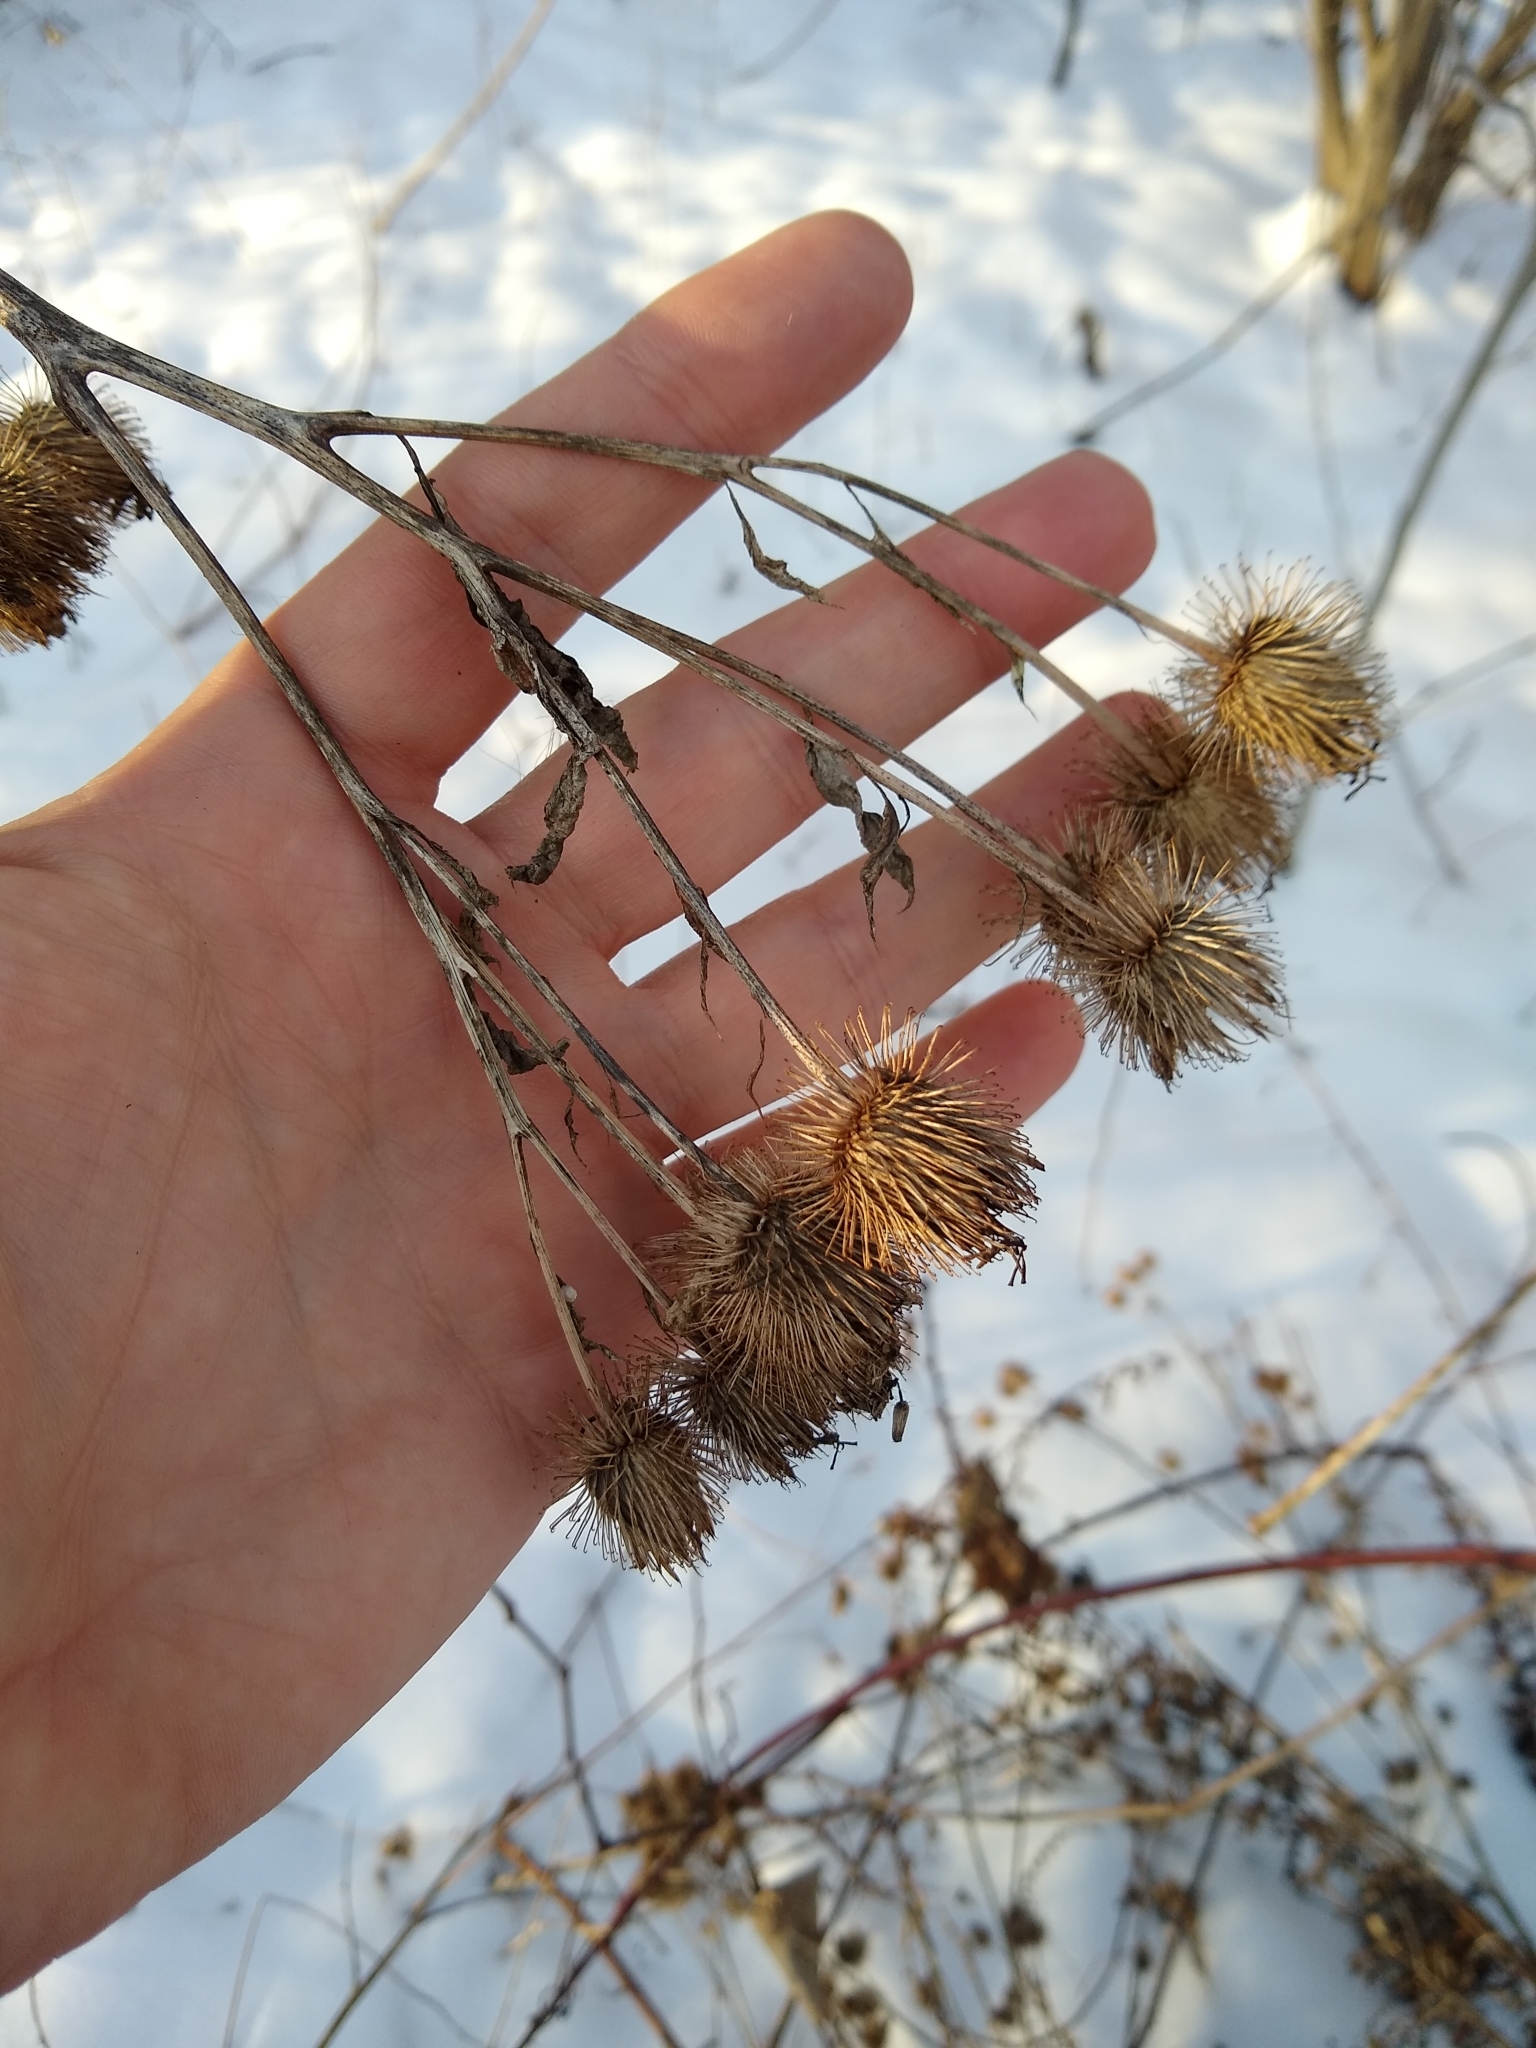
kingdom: Plantae
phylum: Tracheophyta
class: Magnoliopsida
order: Asterales
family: Asteraceae
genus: Arctium
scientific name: Arctium lappa
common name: Greater burdock
